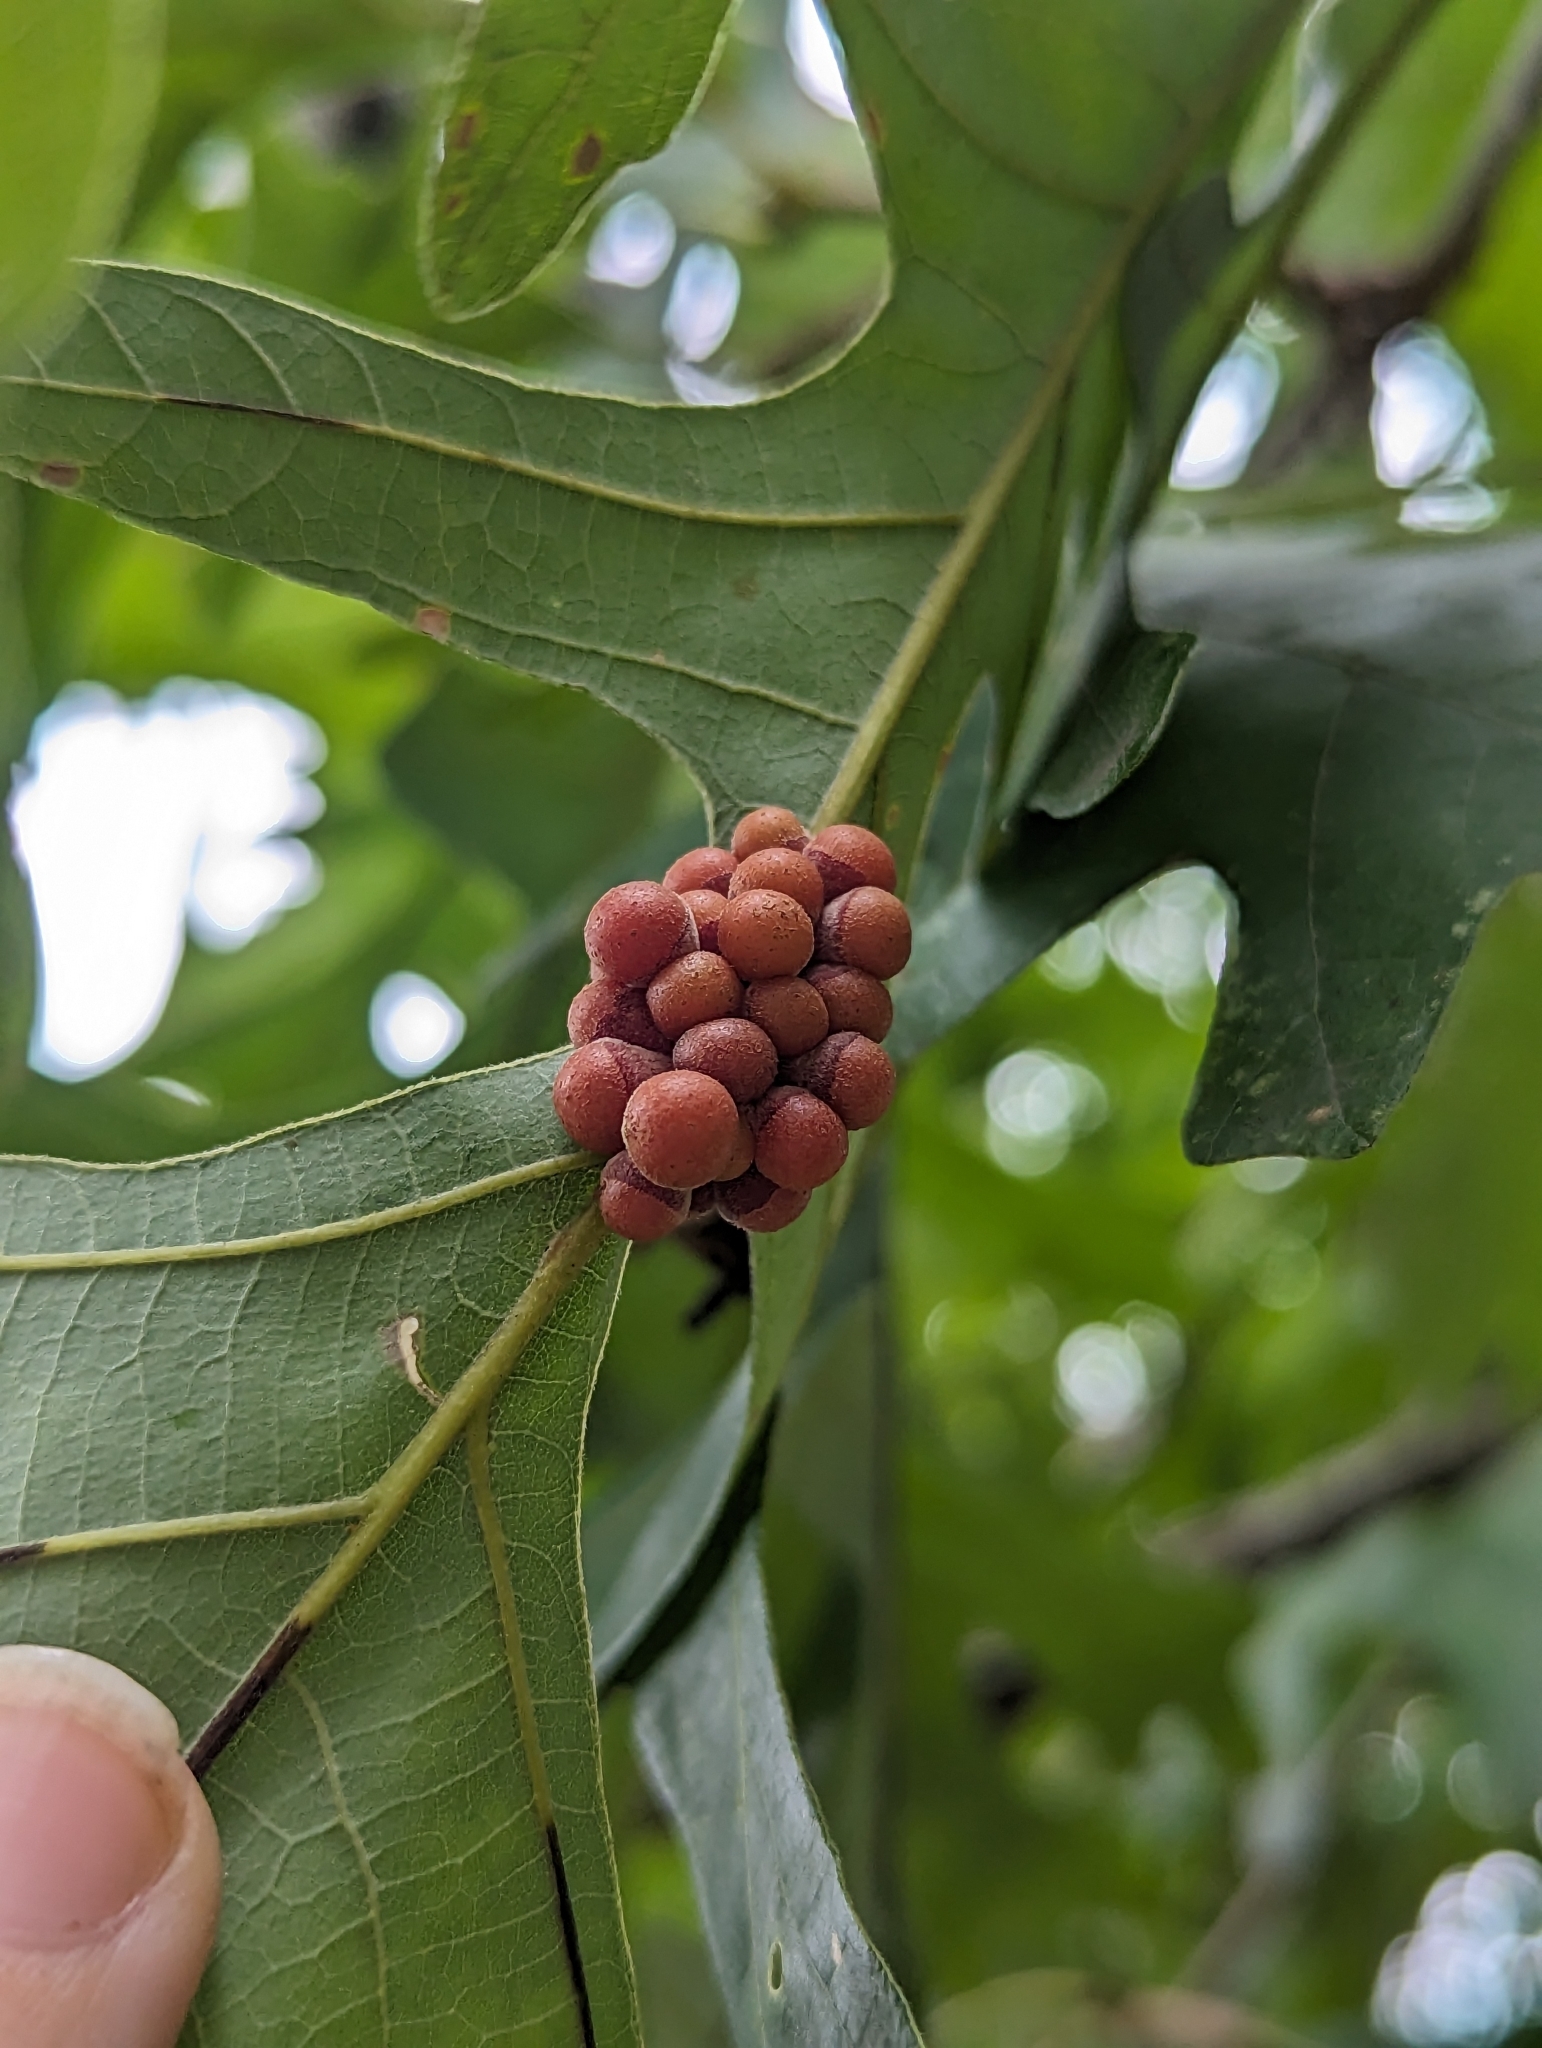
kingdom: Animalia
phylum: Arthropoda
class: Insecta
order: Hymenoptera
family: Cynipidae
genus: Andricus
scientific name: Andricus
